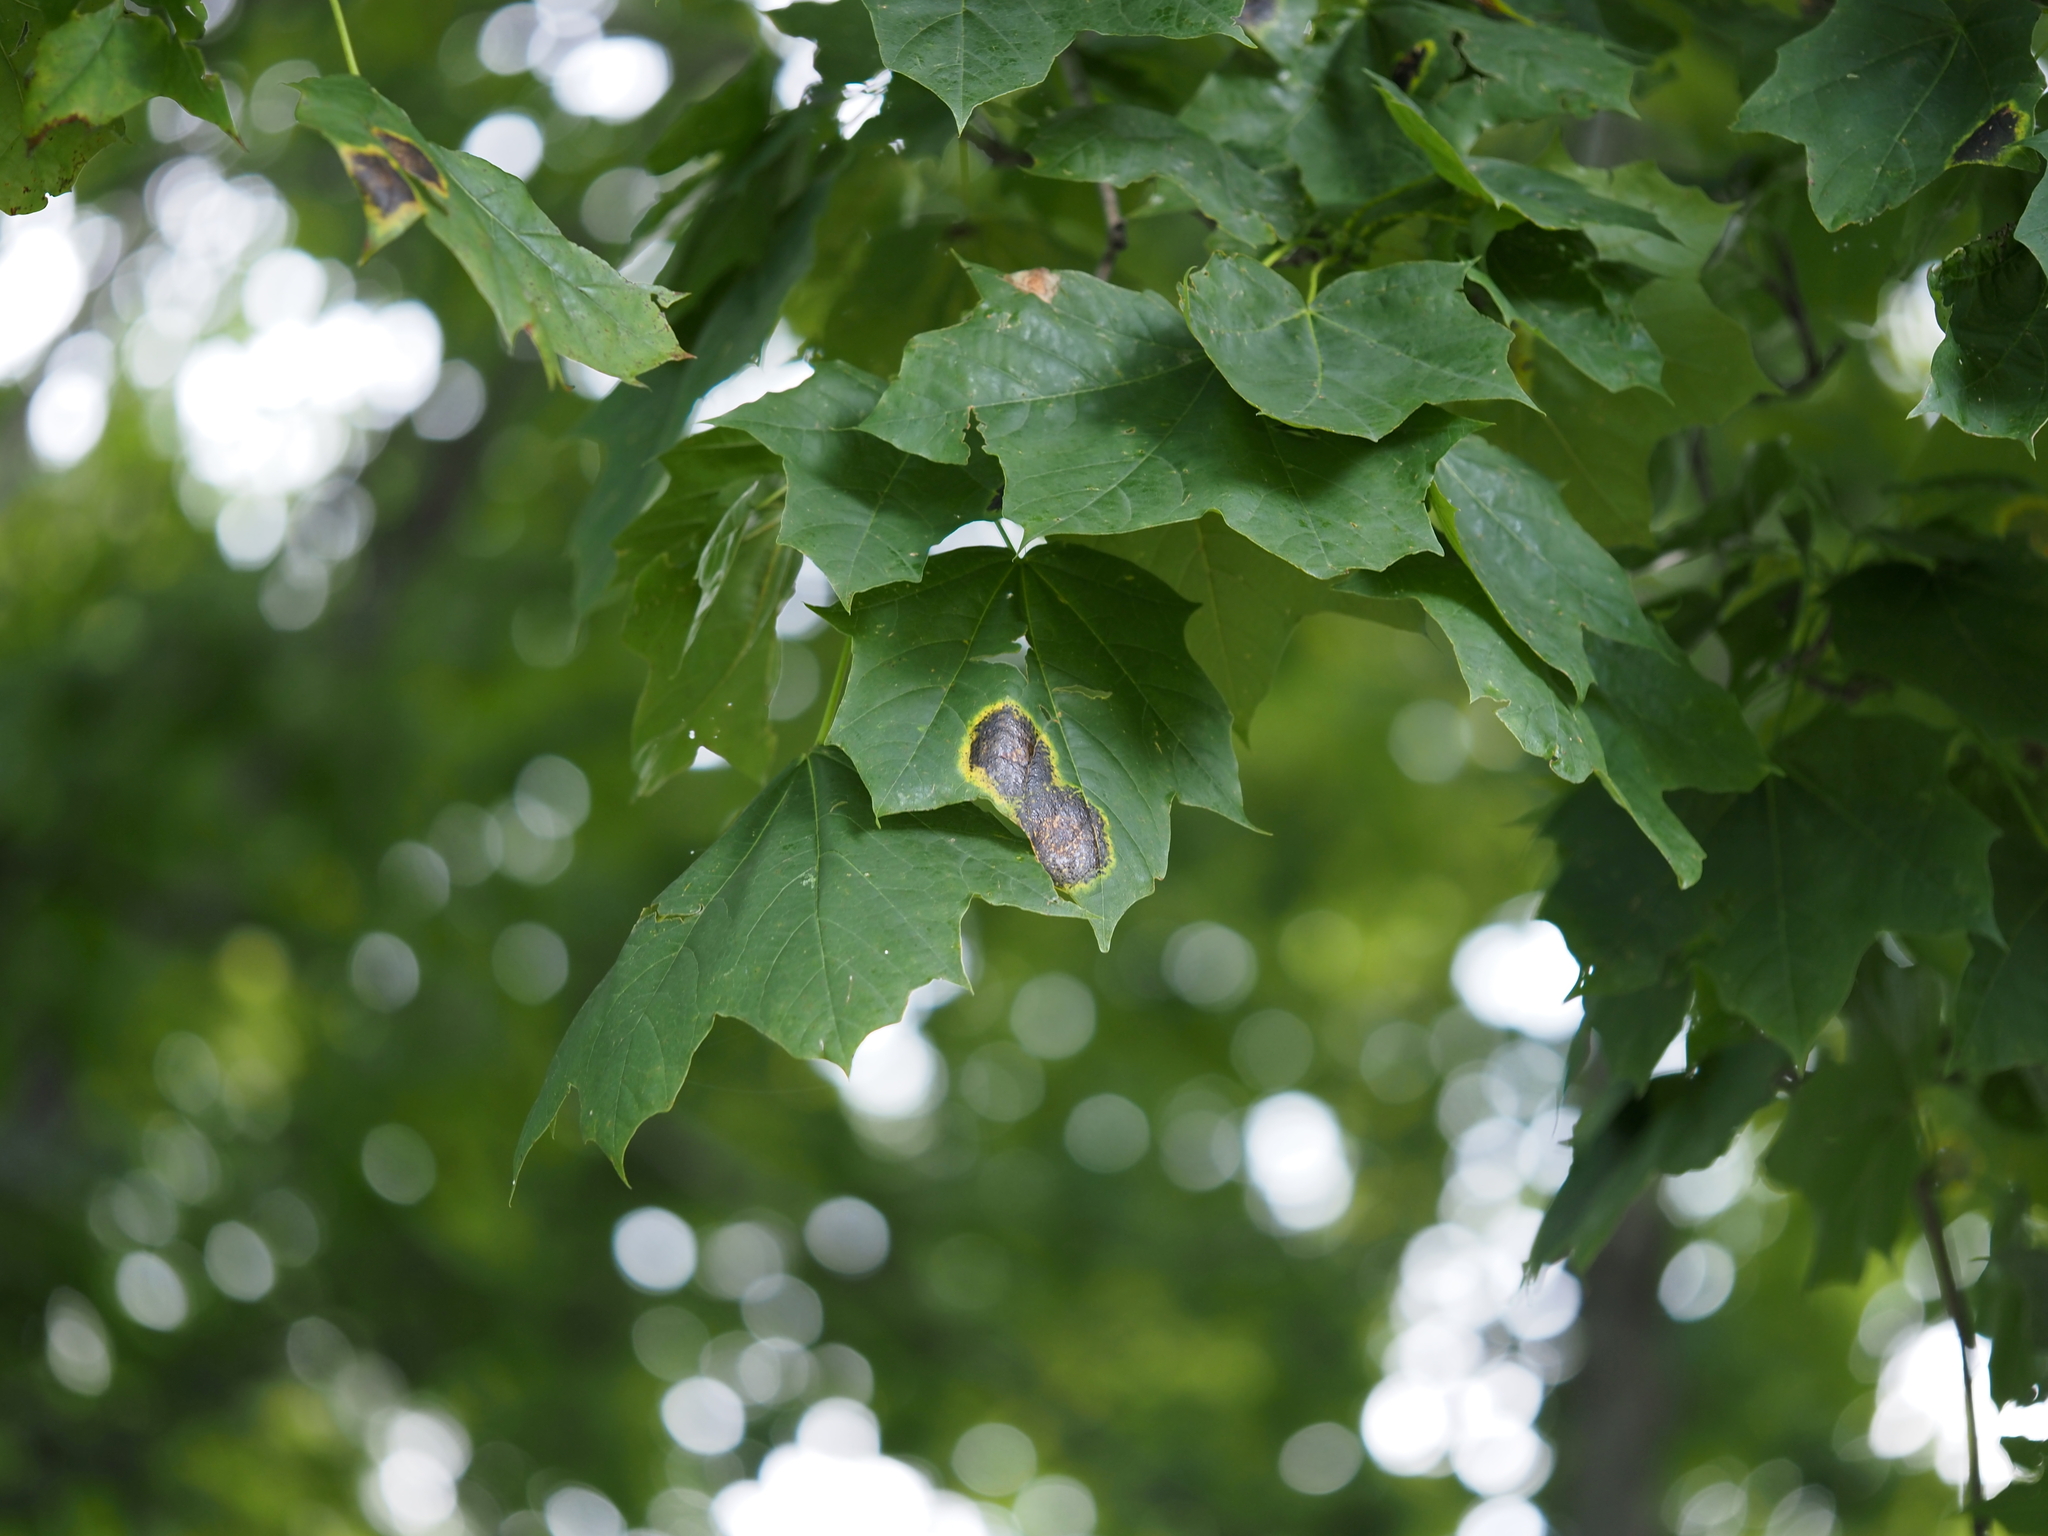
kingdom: Fungi
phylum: Ascomycota
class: Leotiomycetes
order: Rhytismatales
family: Rhytismataceae
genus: Rhytisma
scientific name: Rhytisma acerinum
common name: European tar spot
